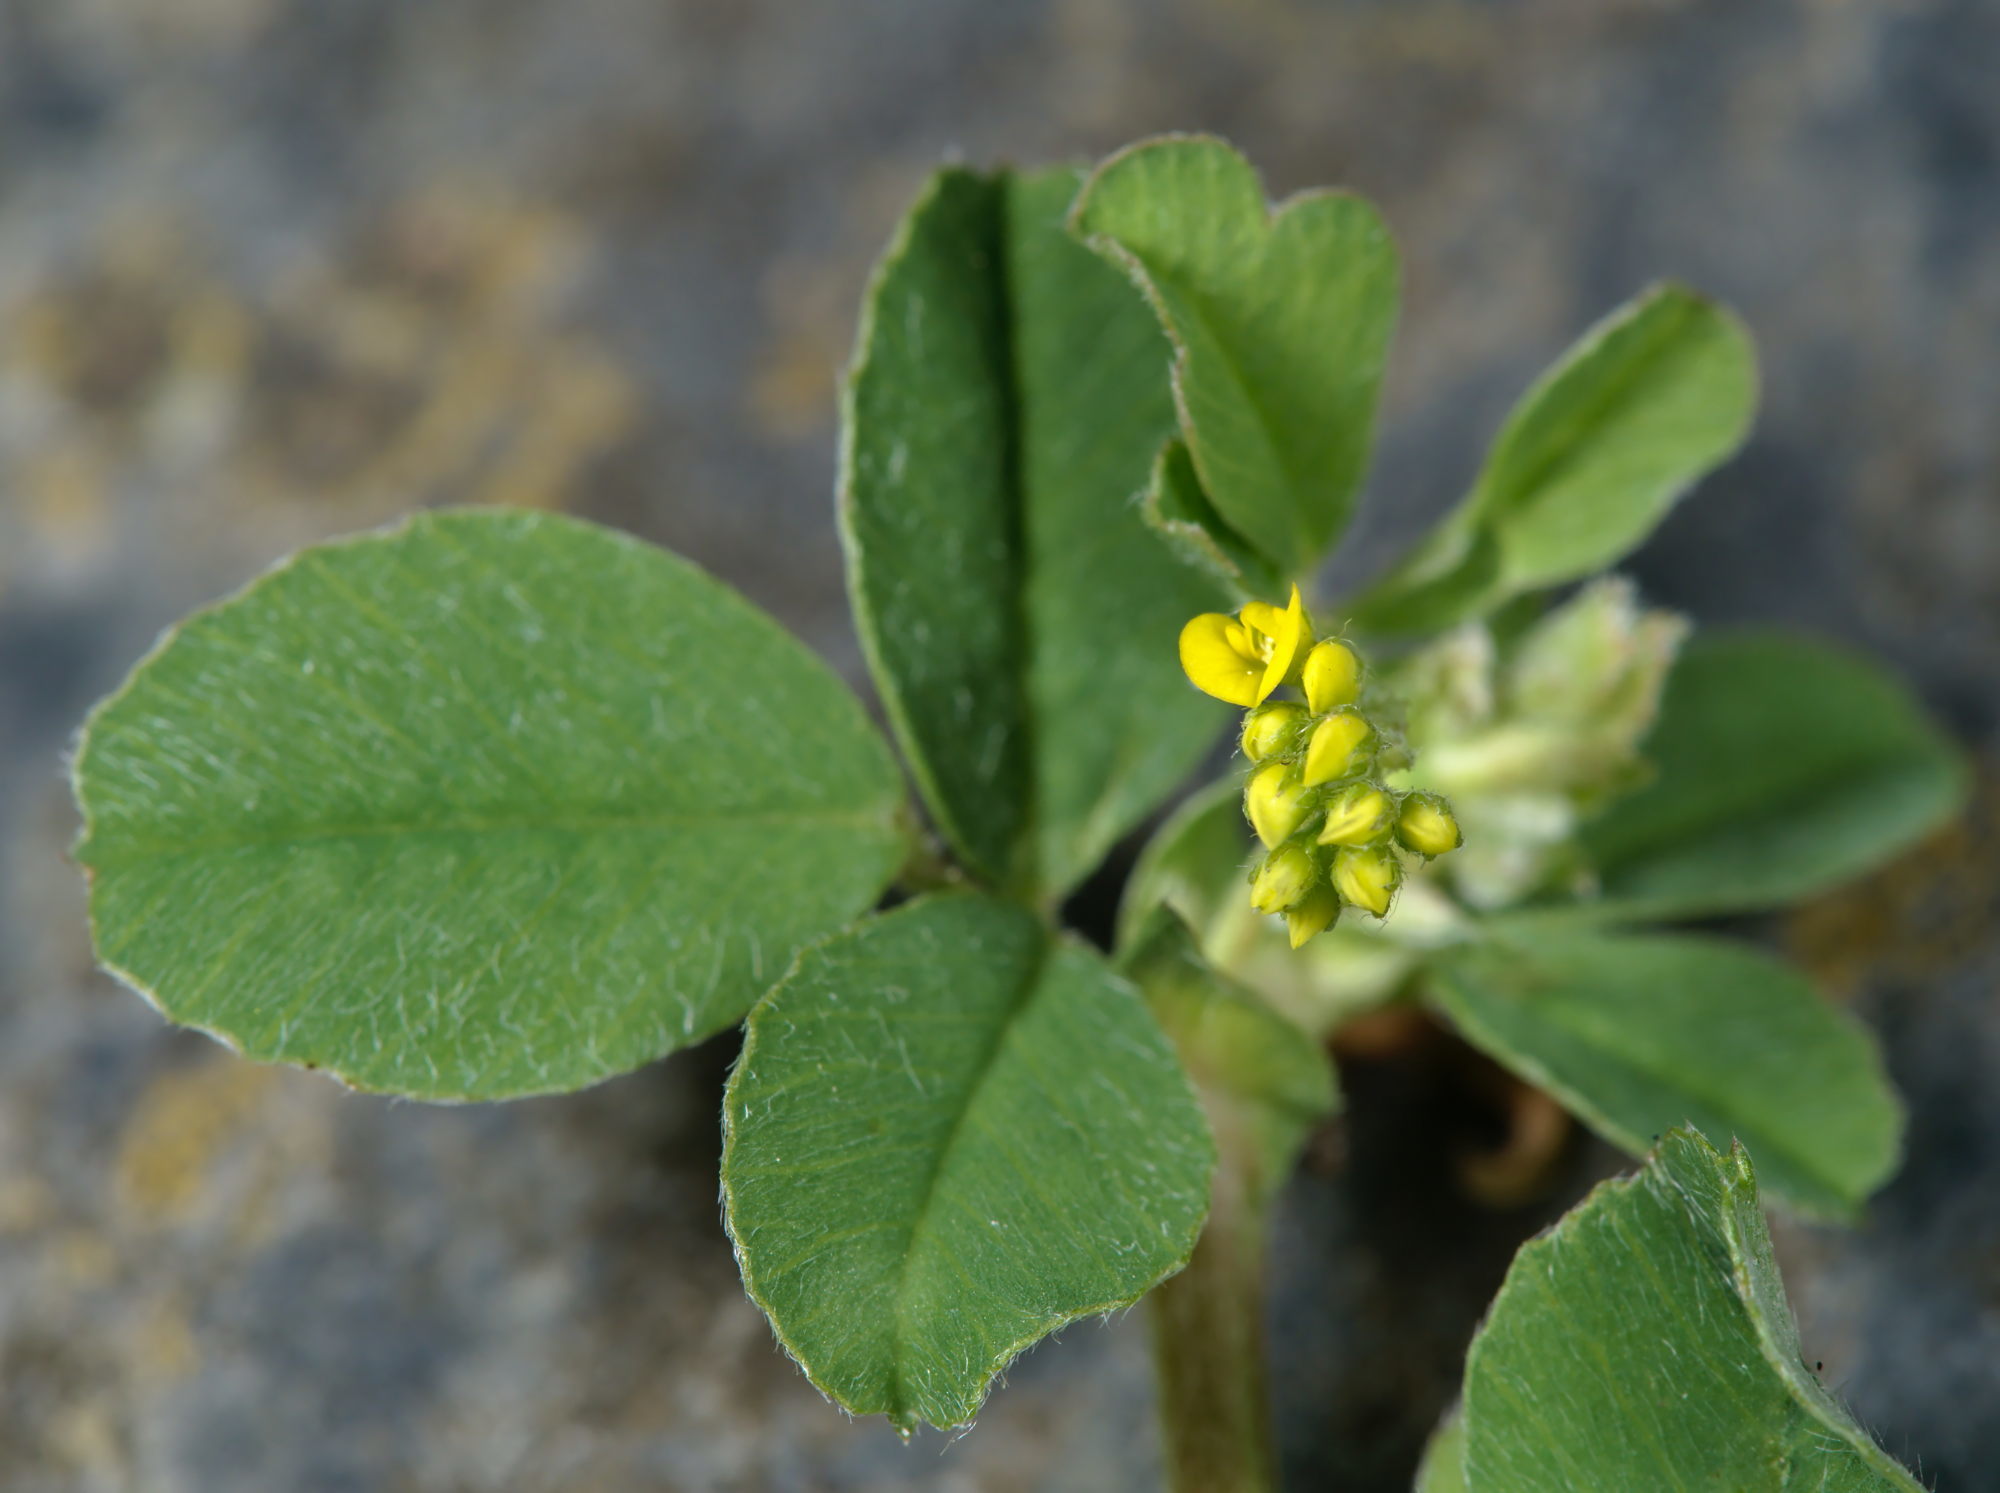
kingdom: Plantae
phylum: Tracheophyta
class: Magnoliopsida
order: Fabales
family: Fabaceae
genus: Medicago
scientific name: Medicago lupulina
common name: Black medick
